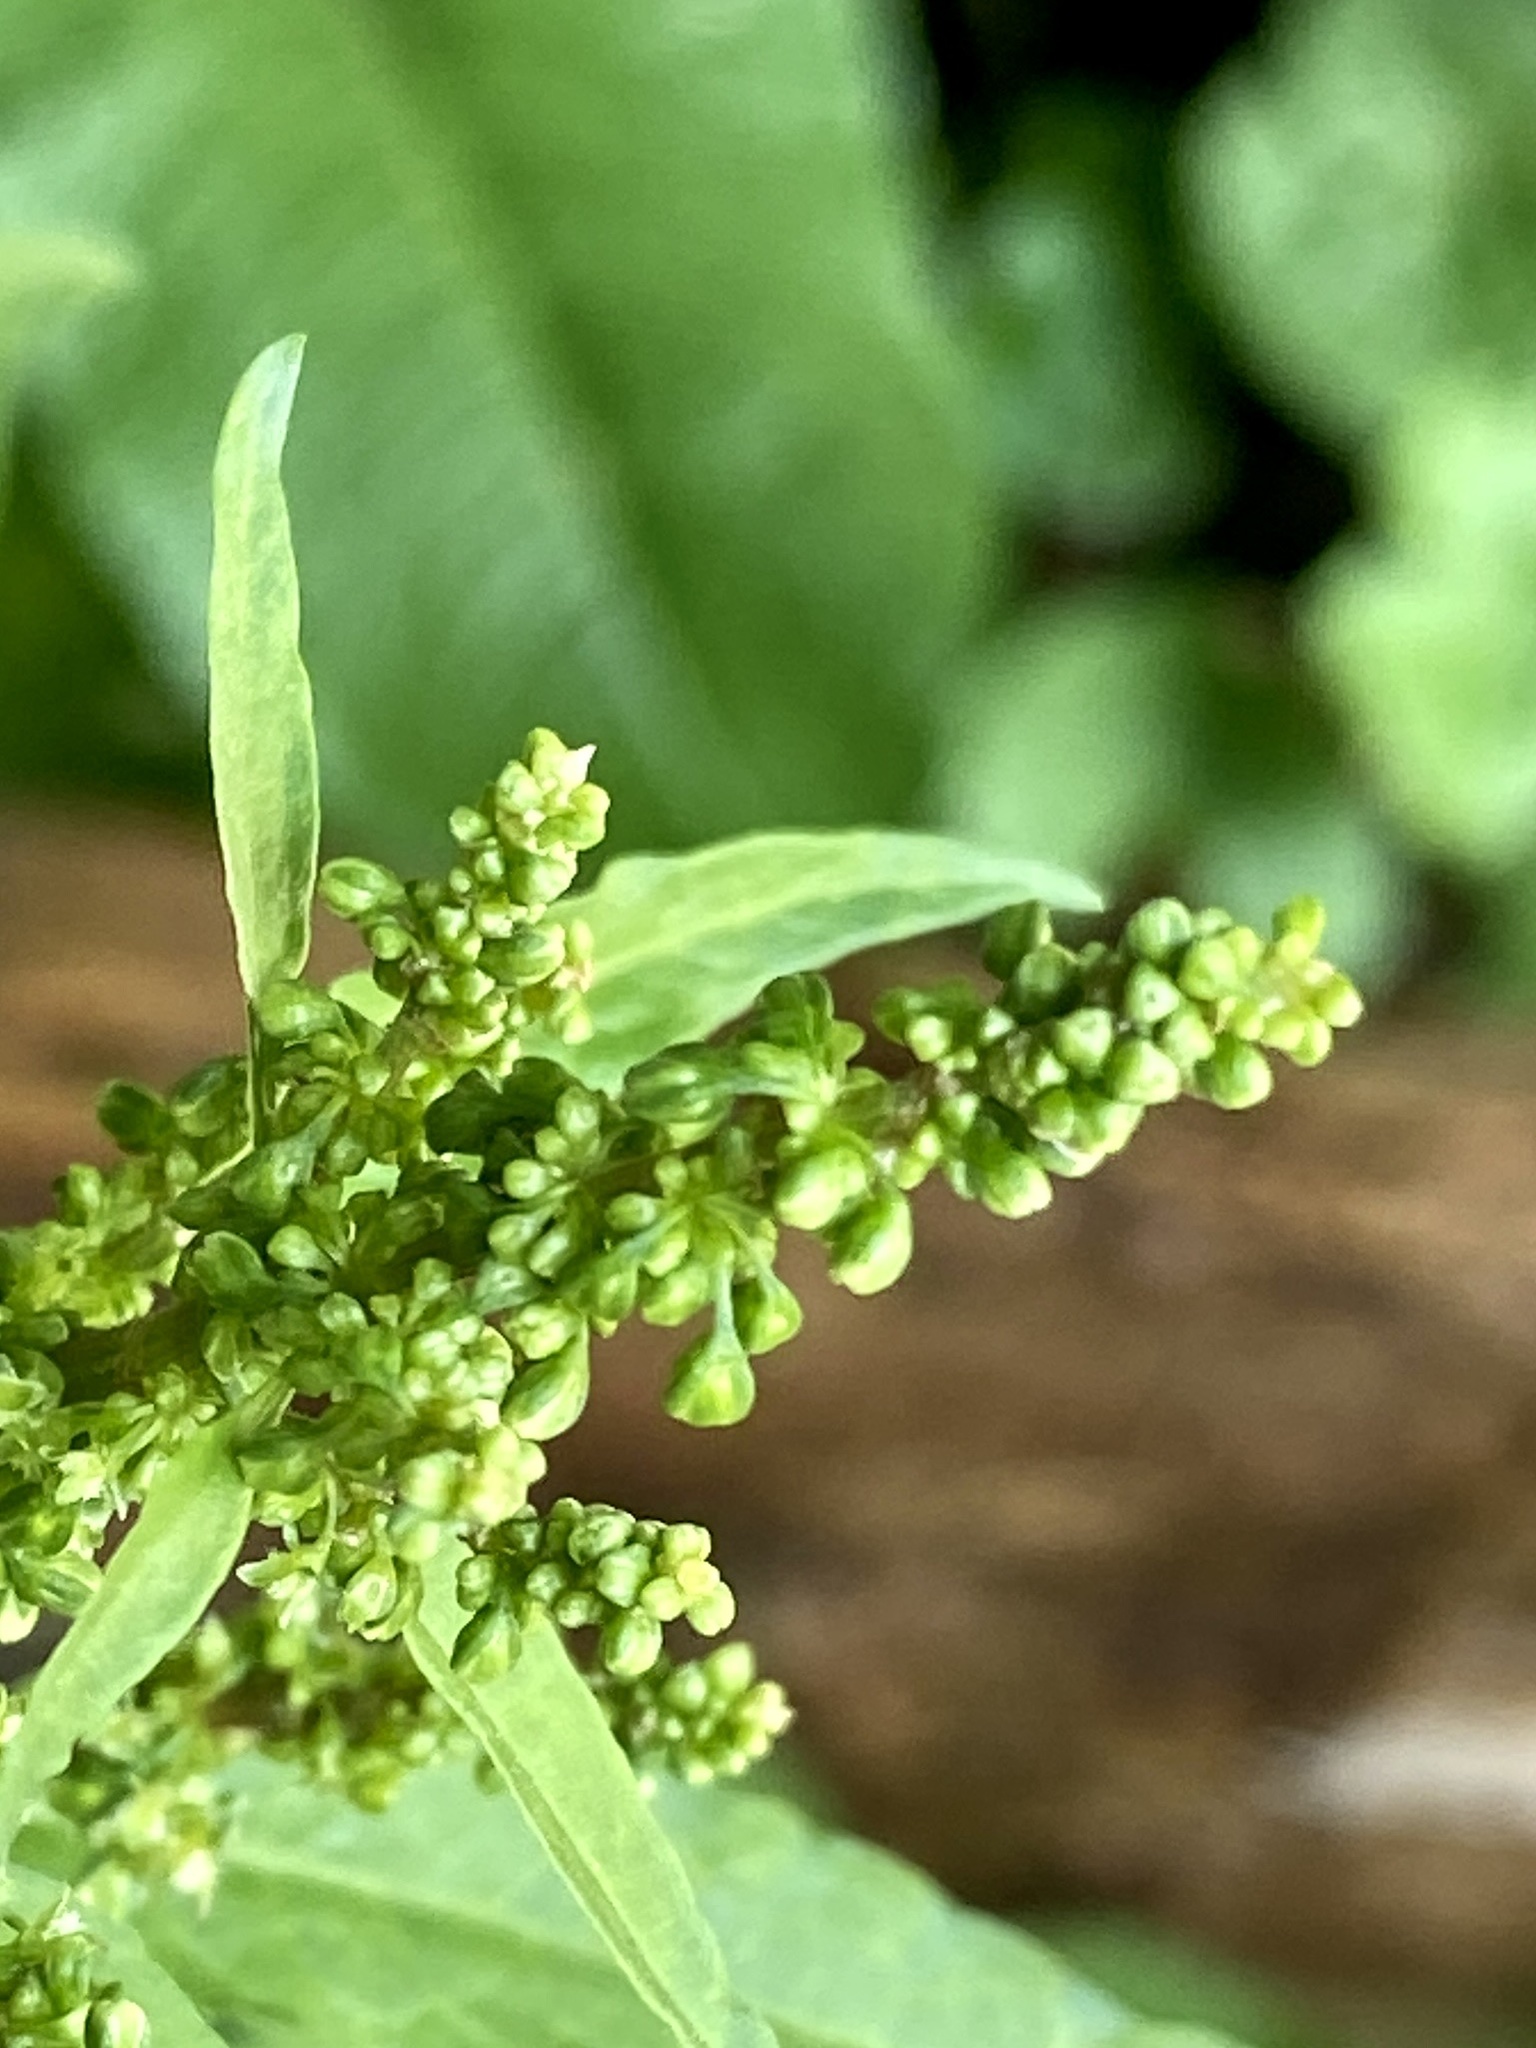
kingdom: Plantae
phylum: Tracheophyta
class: Magnoliopsida
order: Caryophyllales
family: Polygonaceae
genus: Rumex
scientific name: Rumex obtusifolius
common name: Bitter dock
